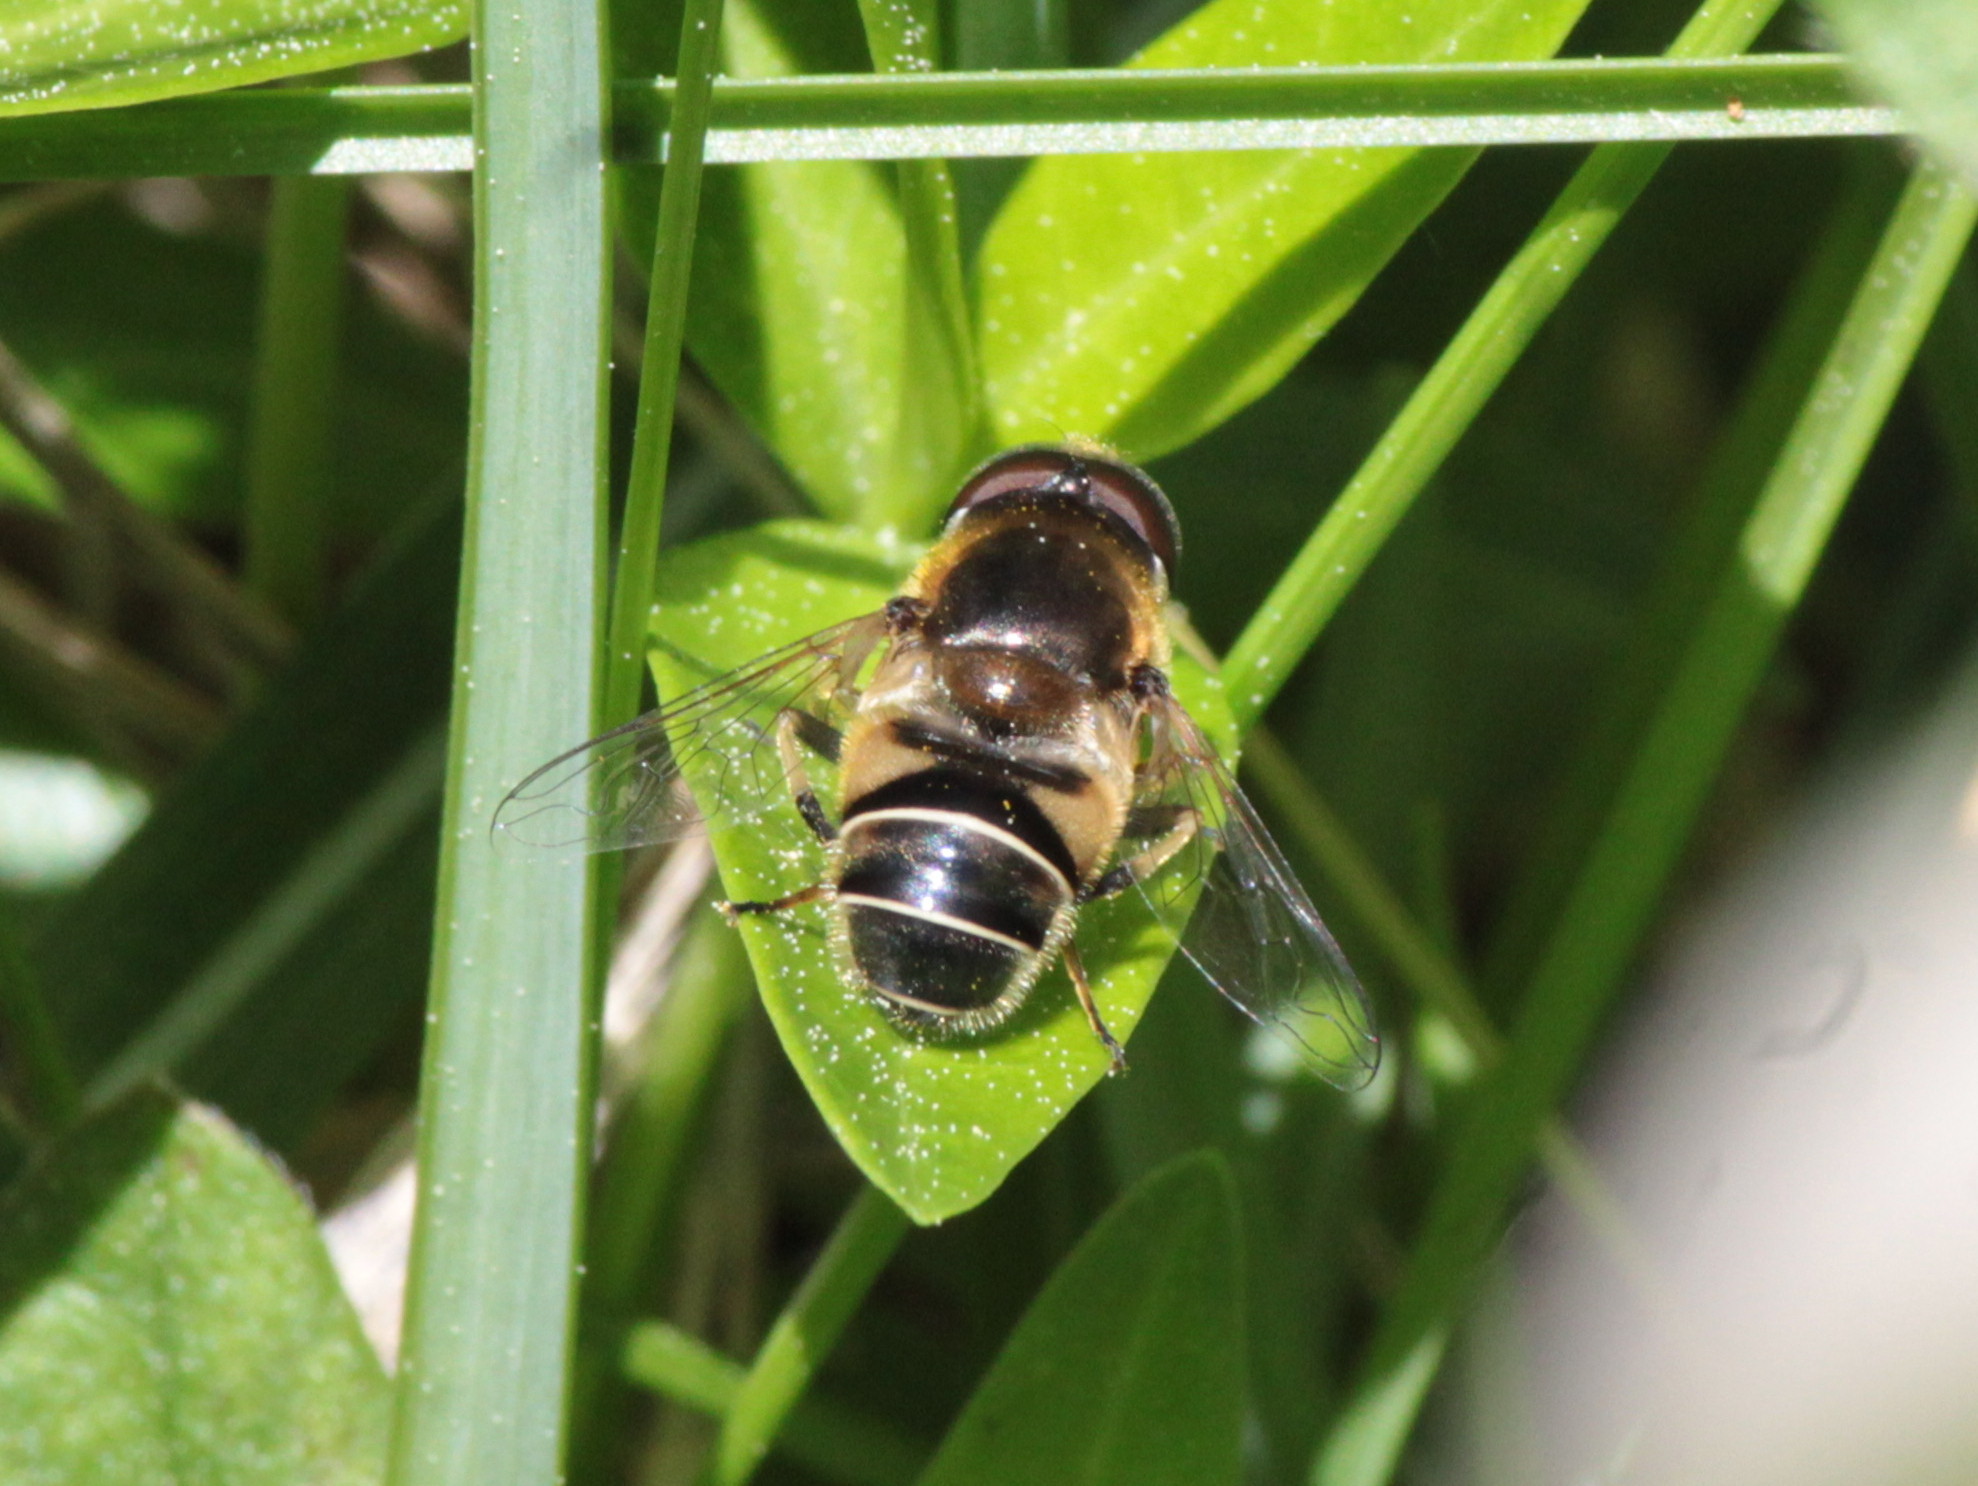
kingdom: Animalia
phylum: Arthropoda
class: Insecta
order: Diptera
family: Syrphidae
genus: Eristalis
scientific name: Eristalis nemorum
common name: Orange-spined drone fly
